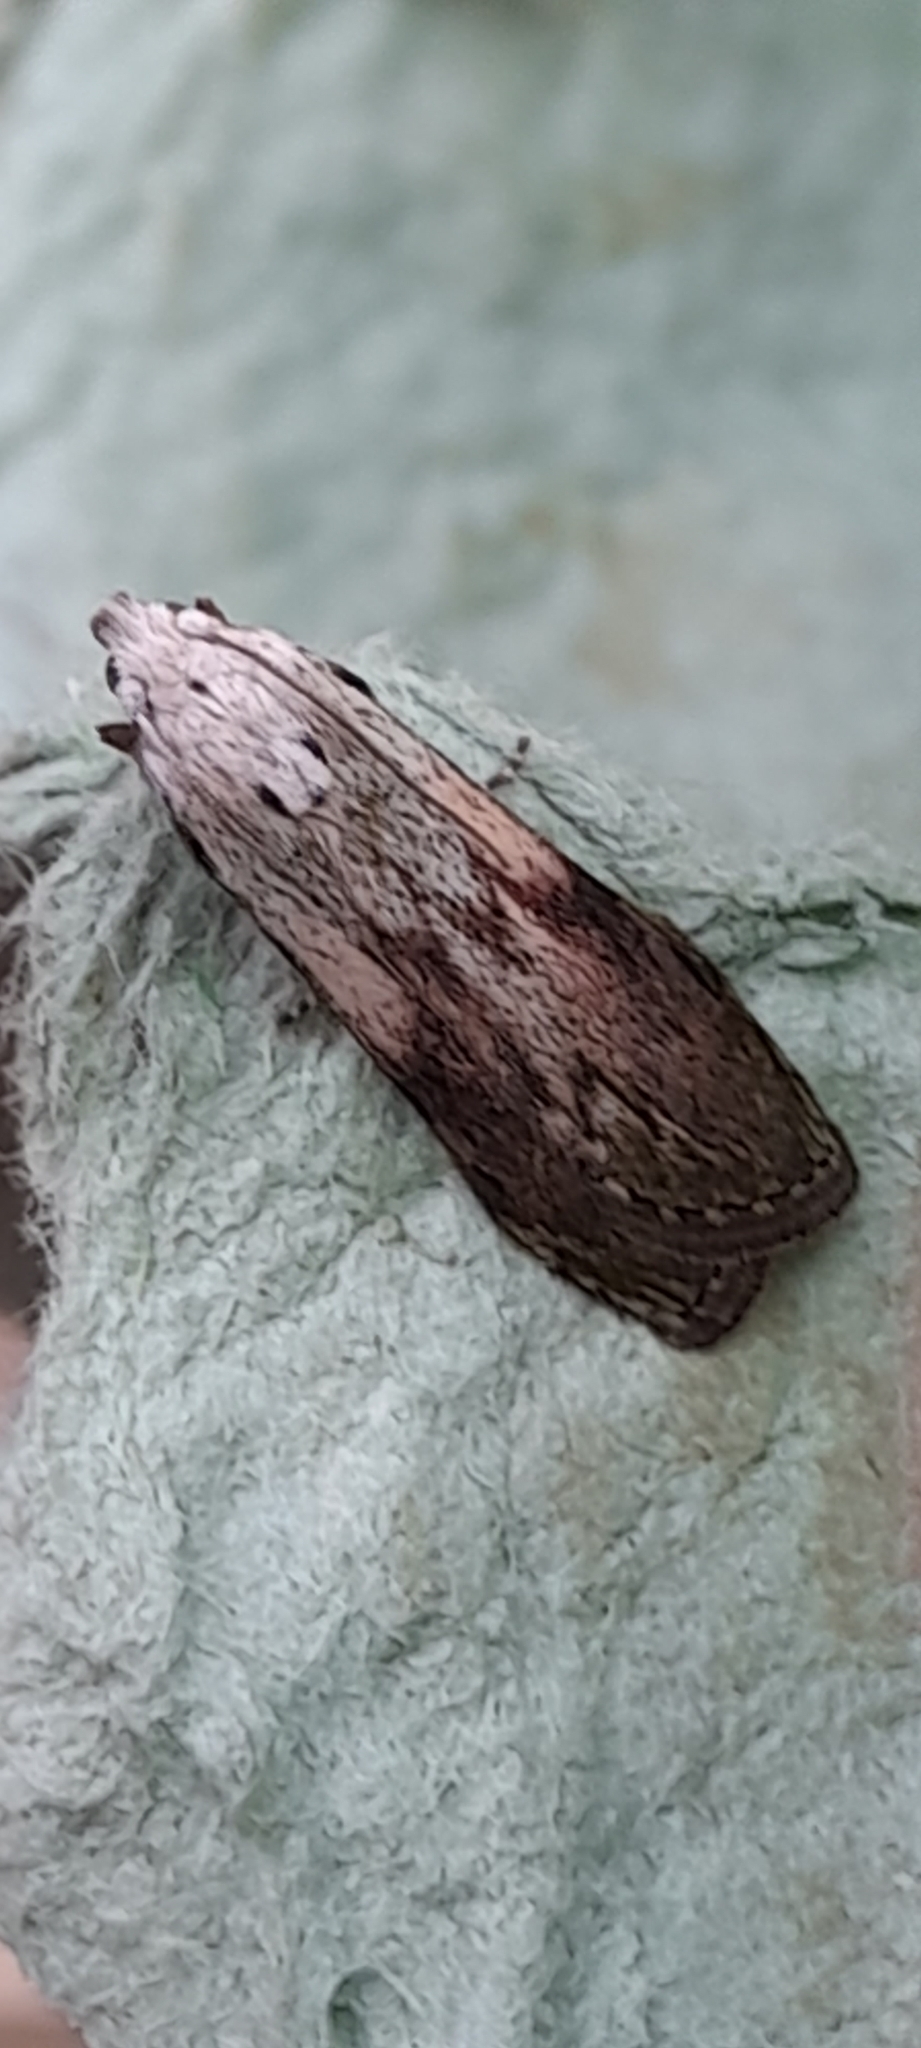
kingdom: Animalia
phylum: Arthropoda
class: Insecta
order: Lepidoptera
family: Pyralidae
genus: Aphomia
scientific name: Aphomia sociella
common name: Bee moth
